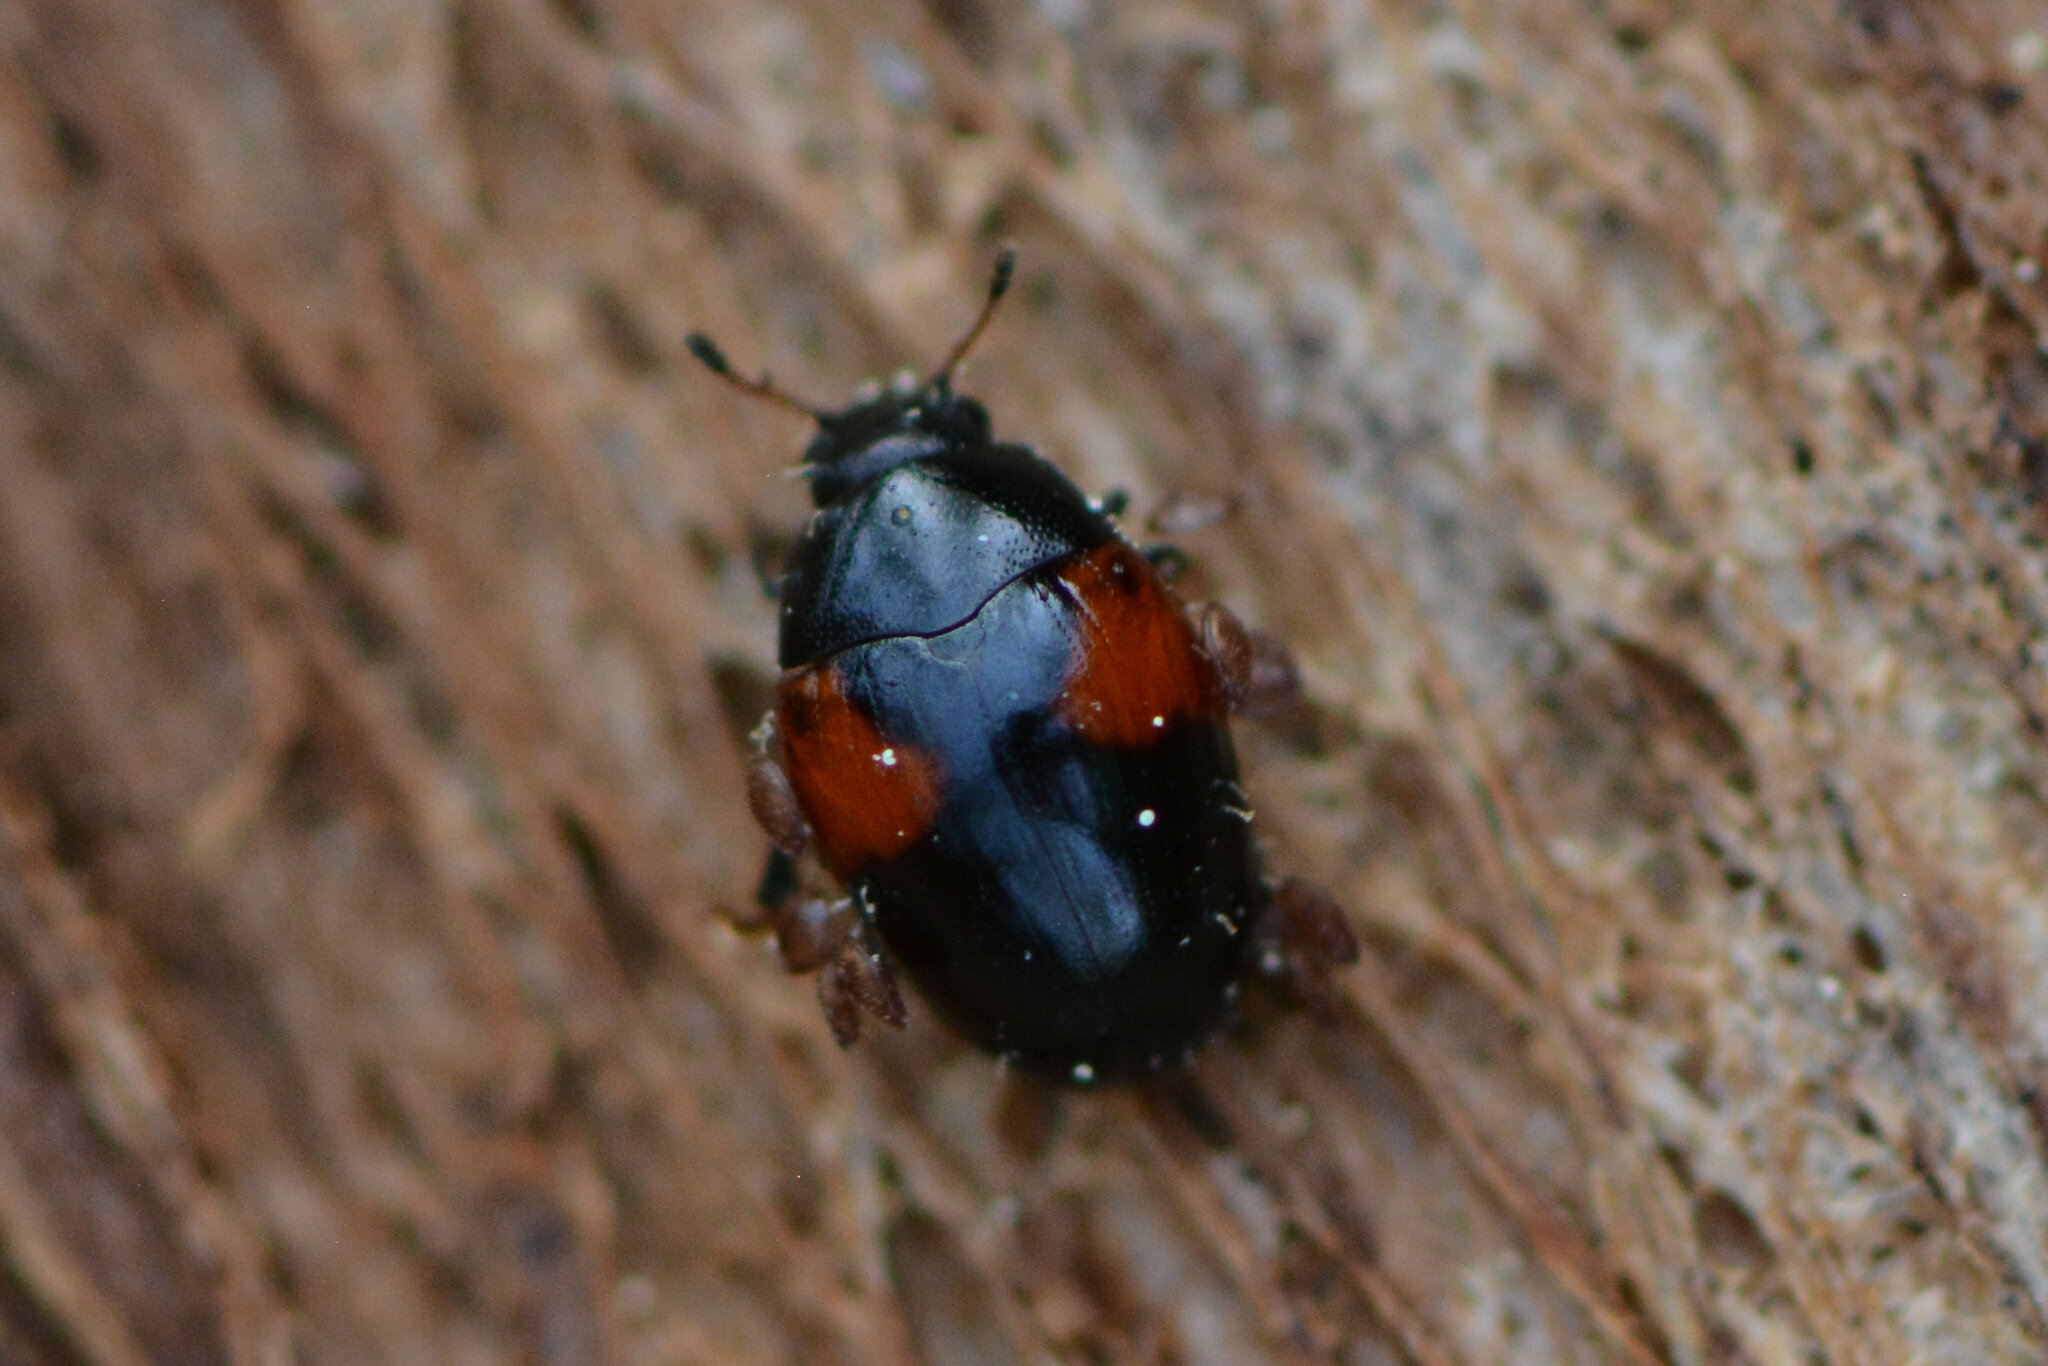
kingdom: Animalia
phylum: Arthropoda
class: Insecta
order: Coleoptera
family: Erotylidae
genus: Tritoma
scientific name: Tritoma bipustulata
